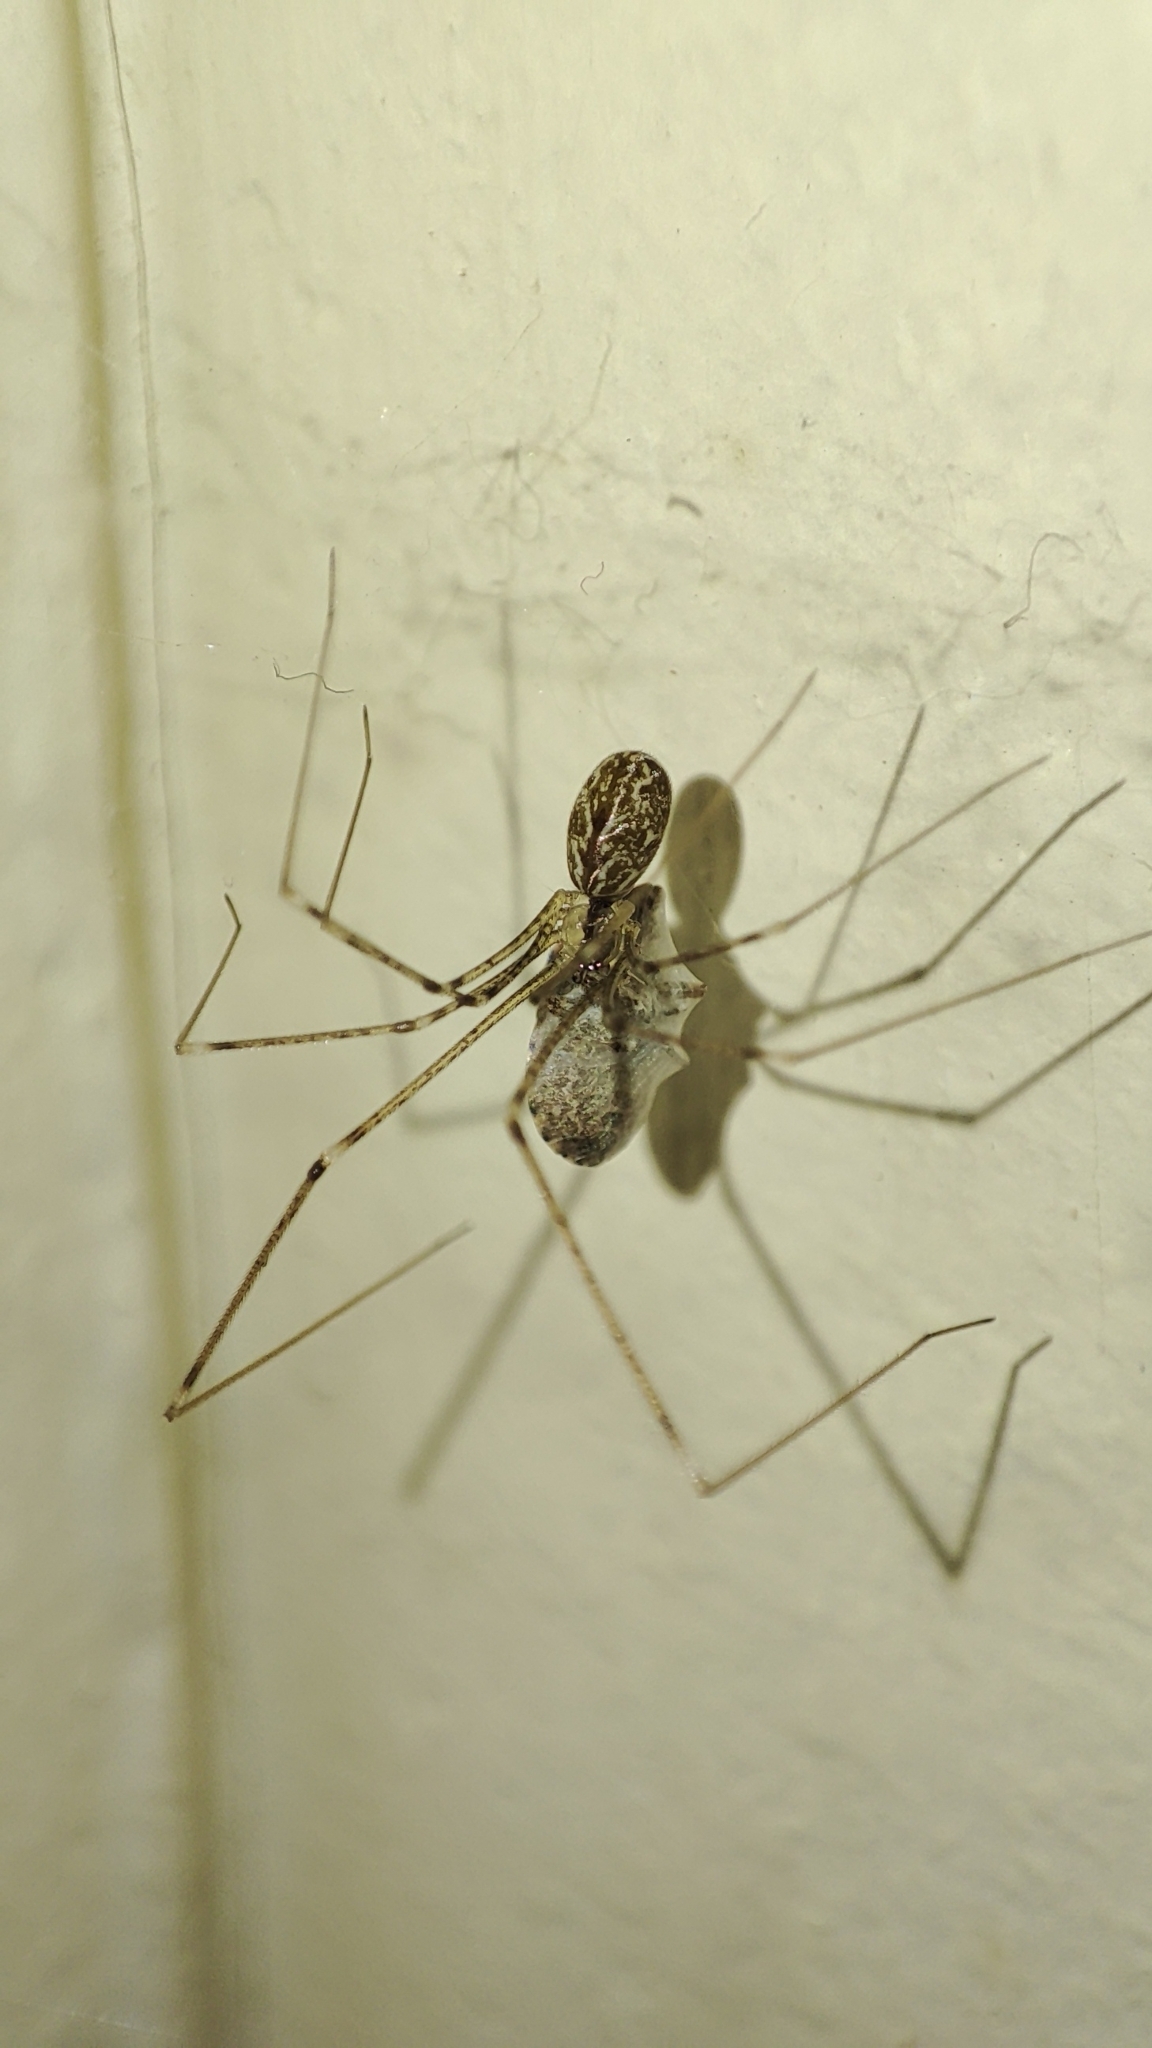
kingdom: Animalia
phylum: Arthropoda
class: Arachnida
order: Araneae
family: Pholcidae
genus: Holocnemus
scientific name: Holocnemus pluchei
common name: Marbled cellar spider
